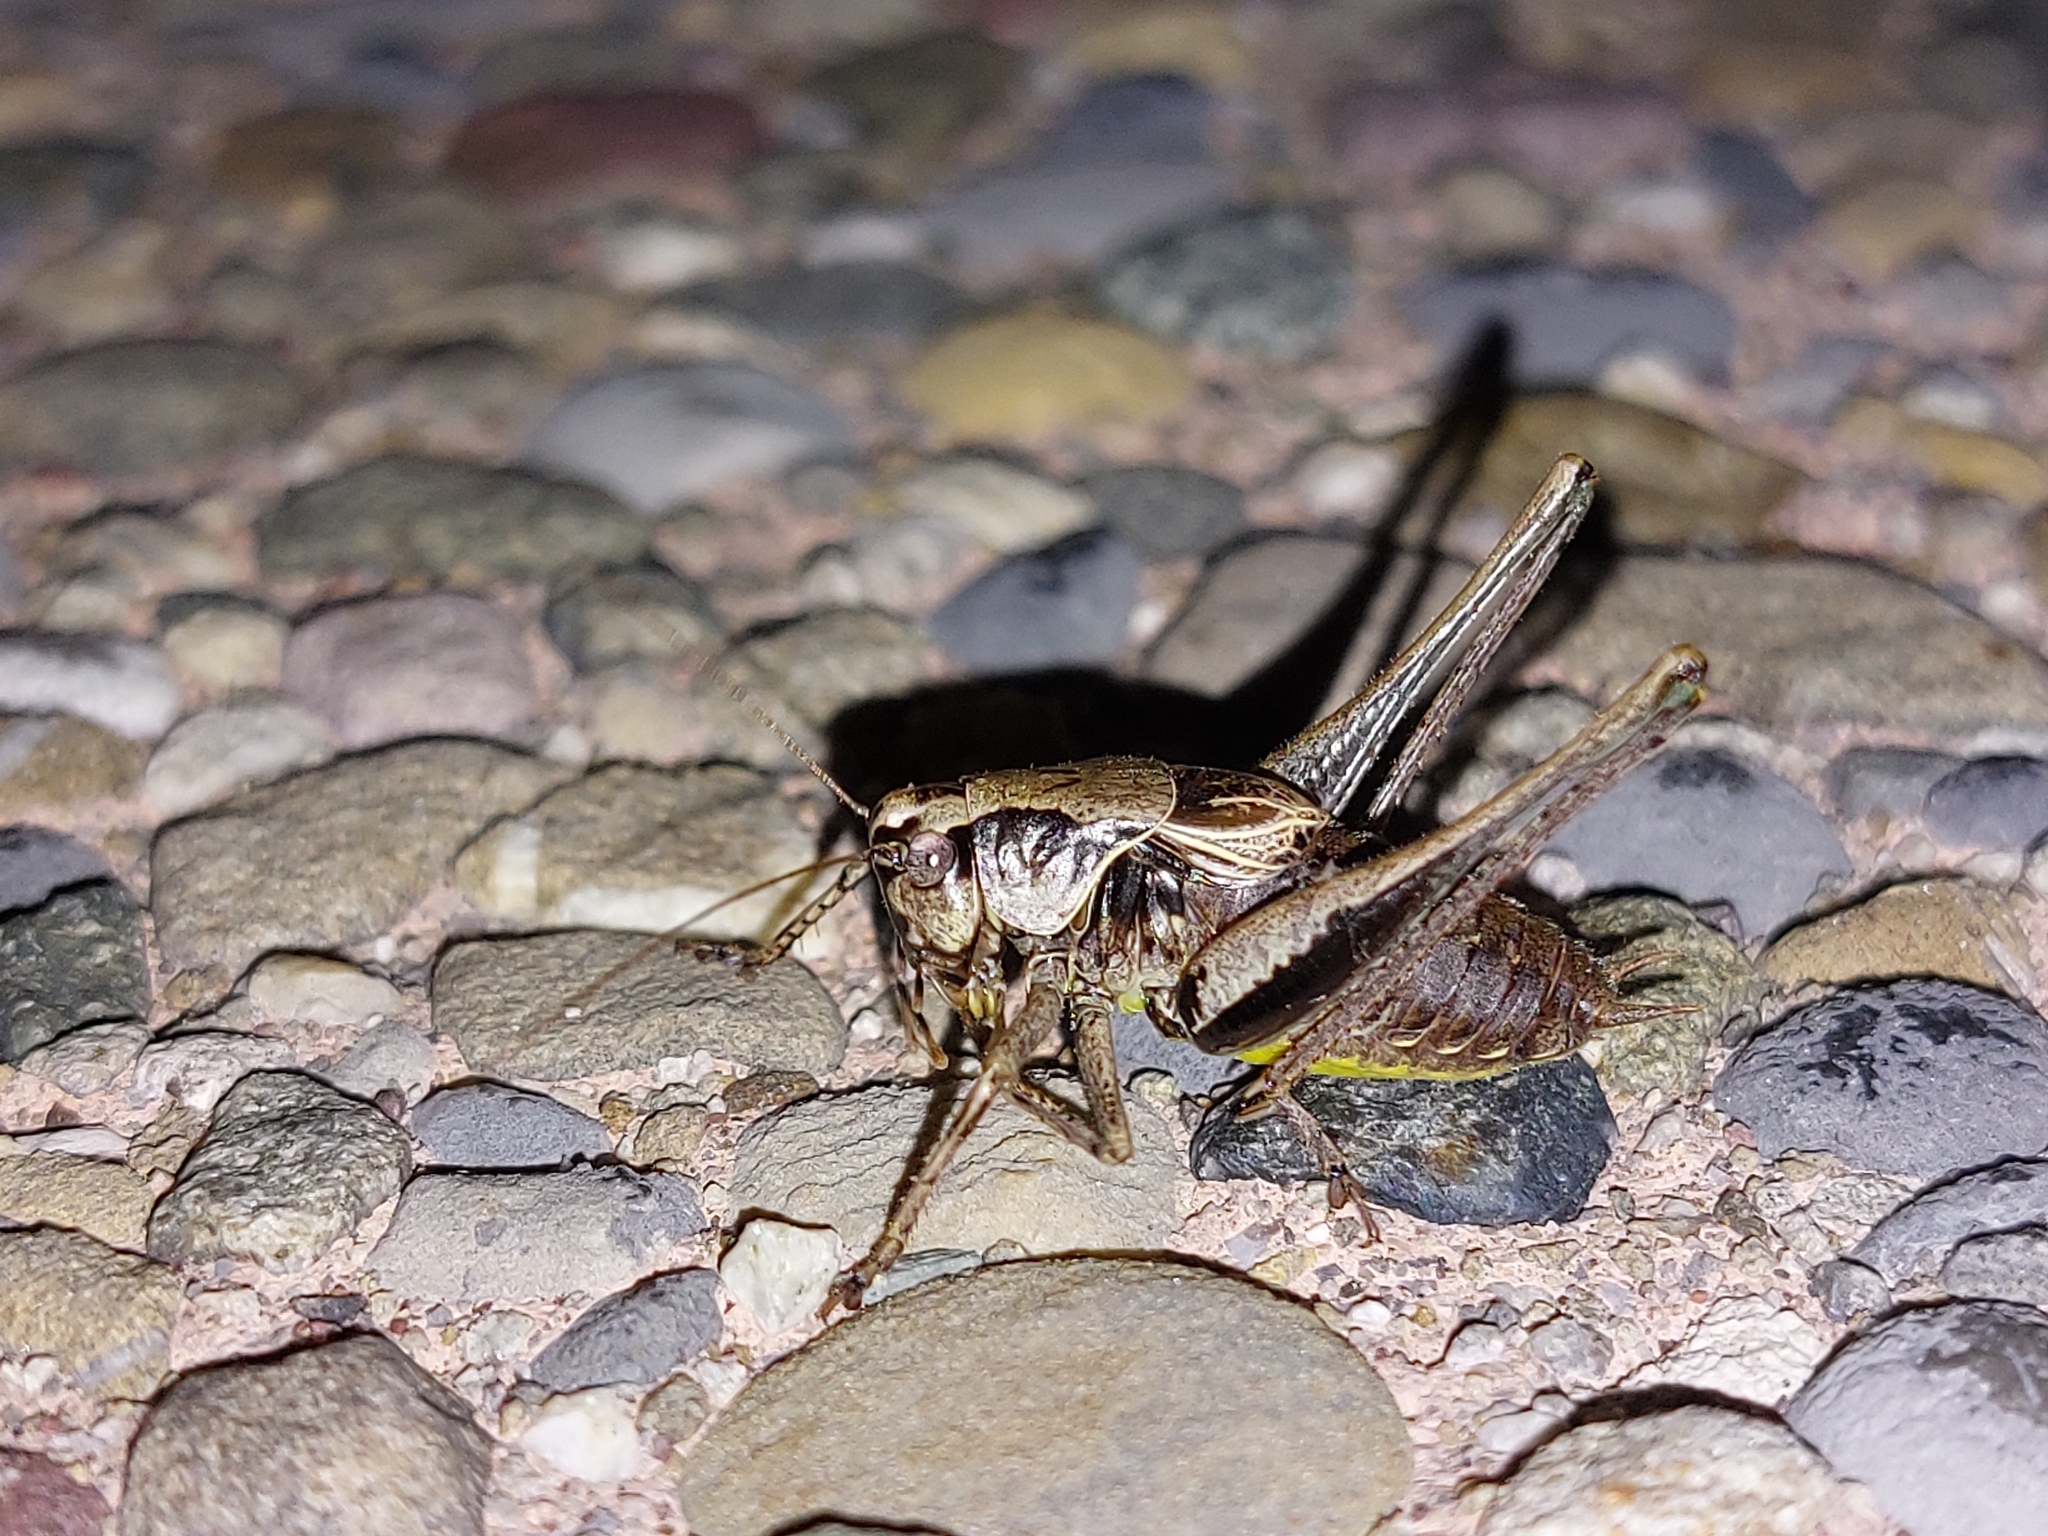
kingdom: Animalia
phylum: Arthropoda
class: Insecta
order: Orthoptera
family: Tettigoniidae
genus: Pholidoptera
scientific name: Pholidoptera griseoaptera
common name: Dark bush-cricket
